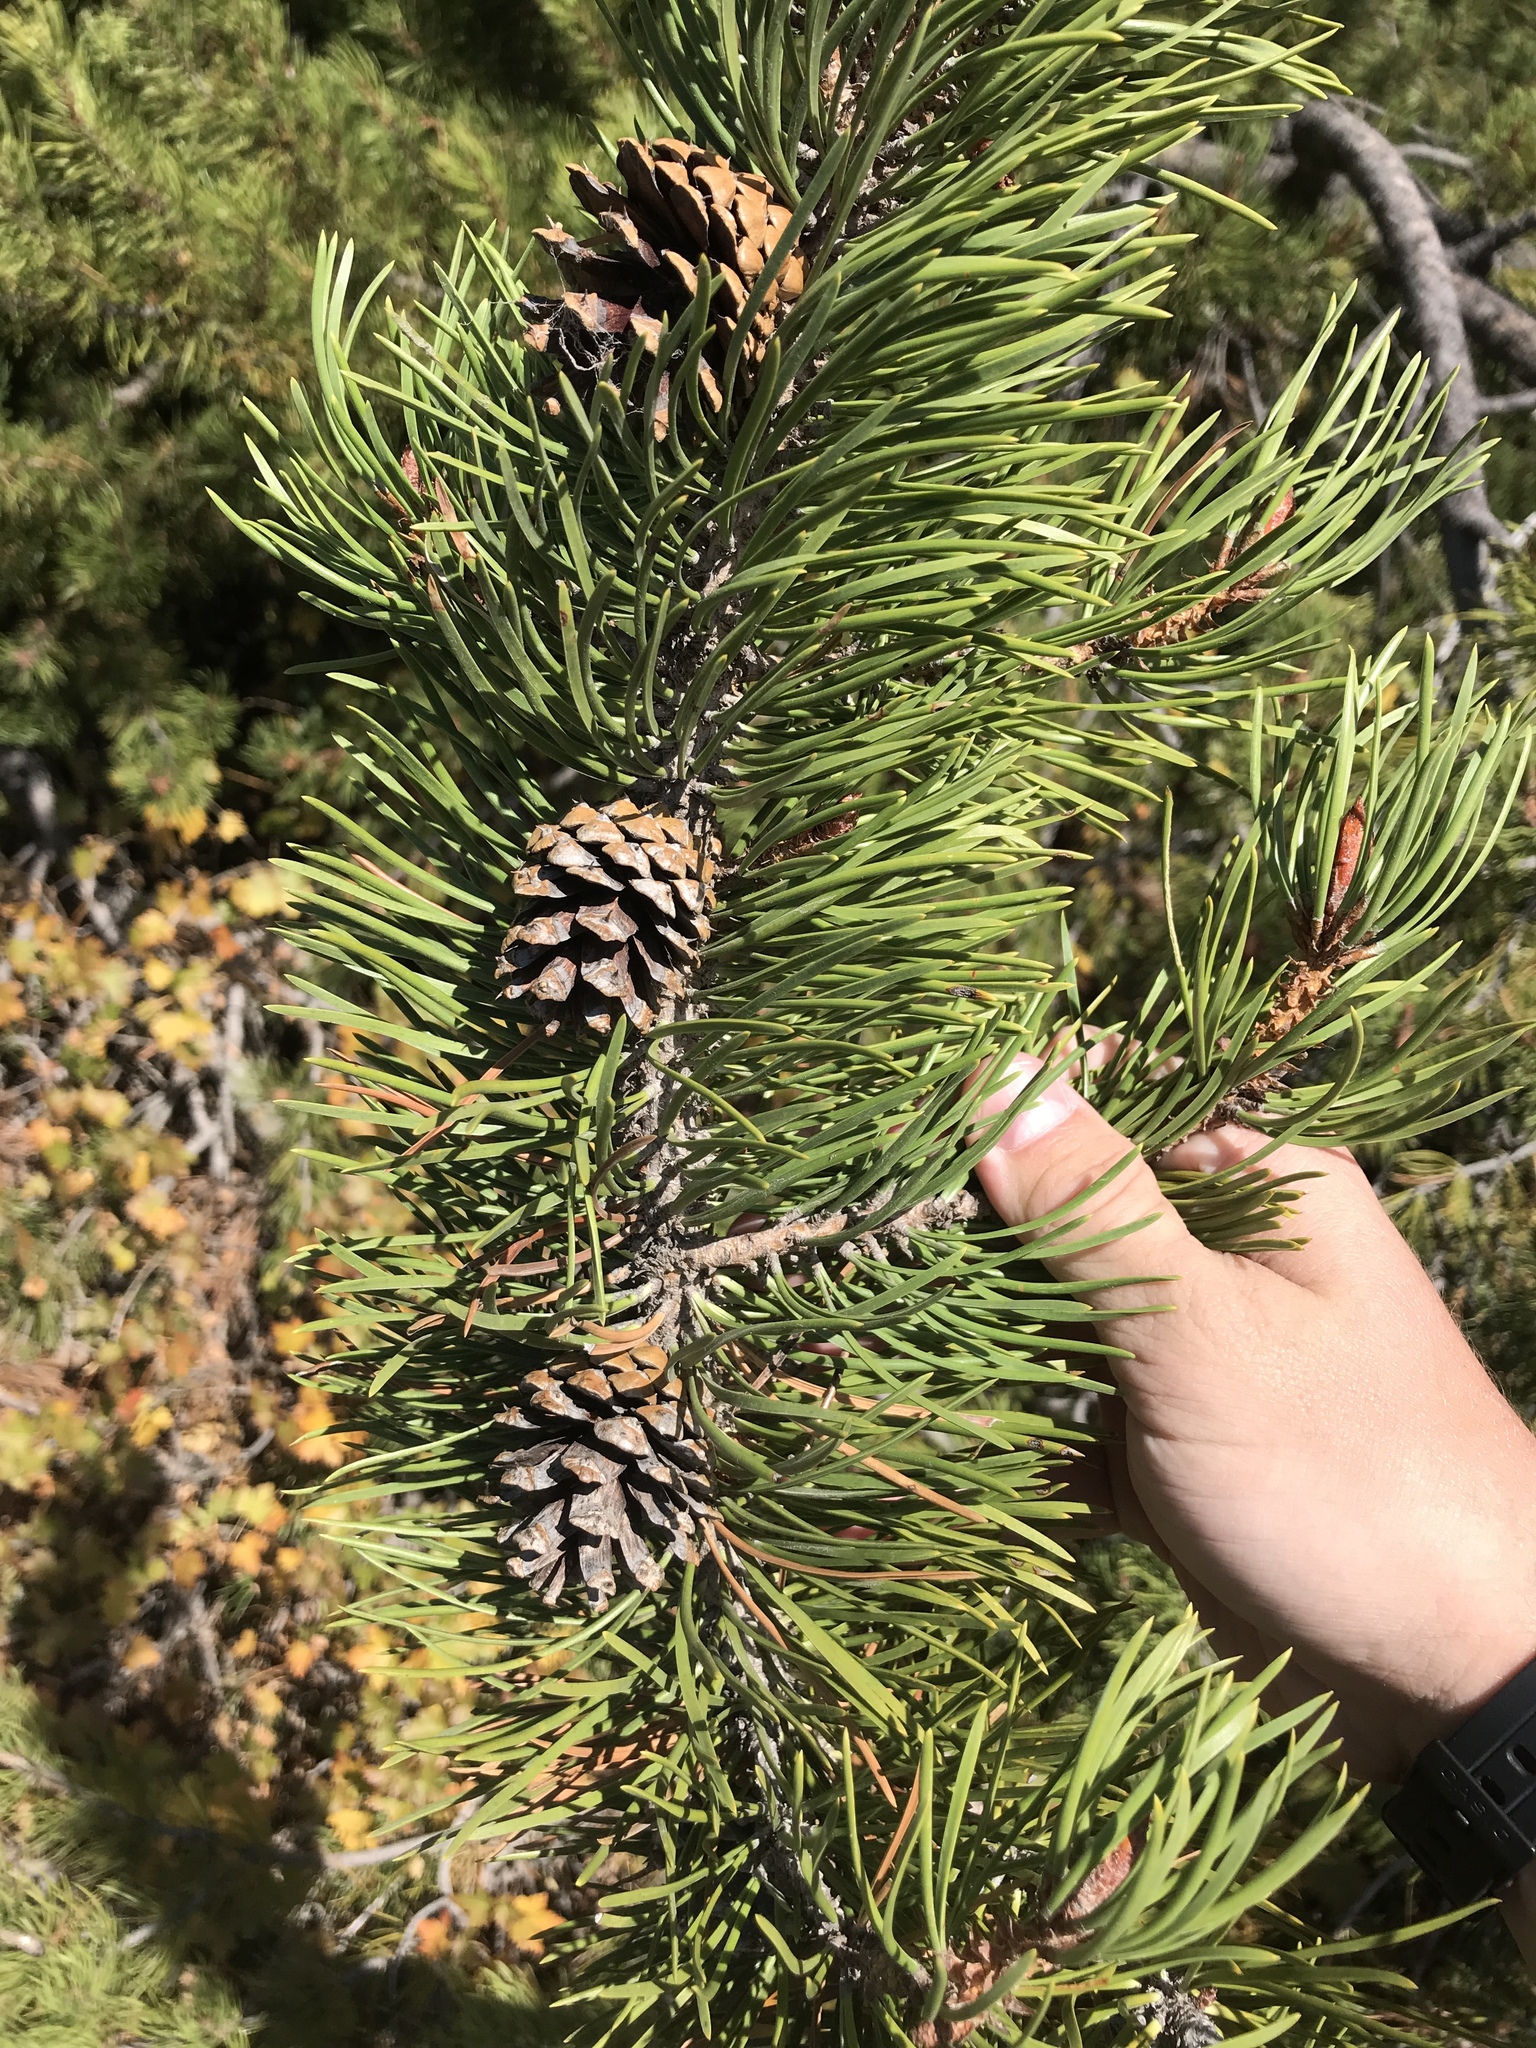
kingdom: Plantae
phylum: Tracheophyta
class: Pinopsida
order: Pinales
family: Pinaceae
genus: Pinus
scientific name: Pinus contorta
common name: Lodgepole pine
